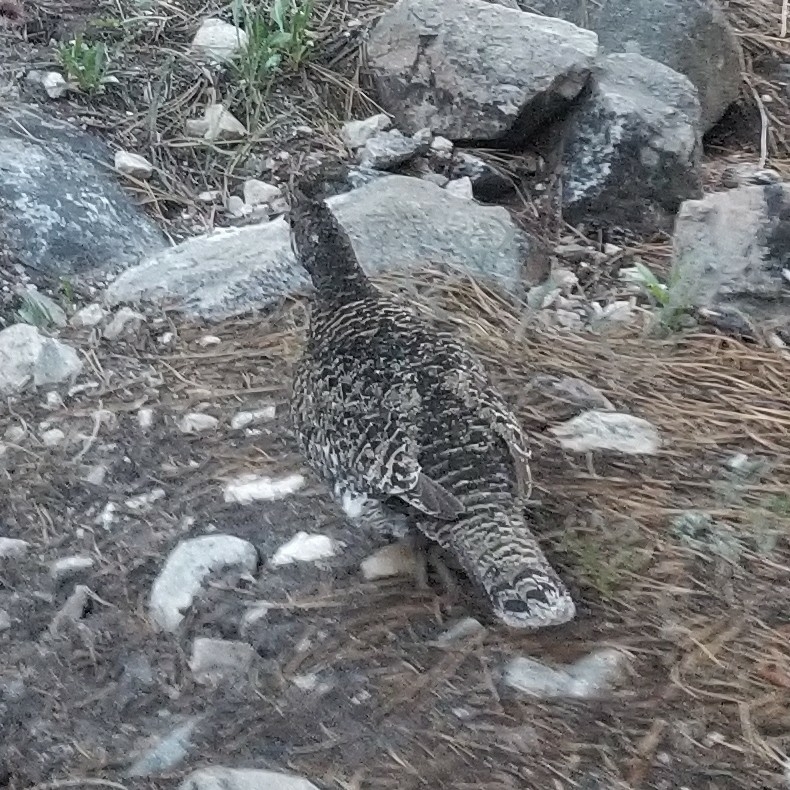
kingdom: Animalia
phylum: Chordata
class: Aves
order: Galliformes
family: Phasianidae
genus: Dendragapus
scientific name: Dendragapus fuliginosus
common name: Sooty grouse
